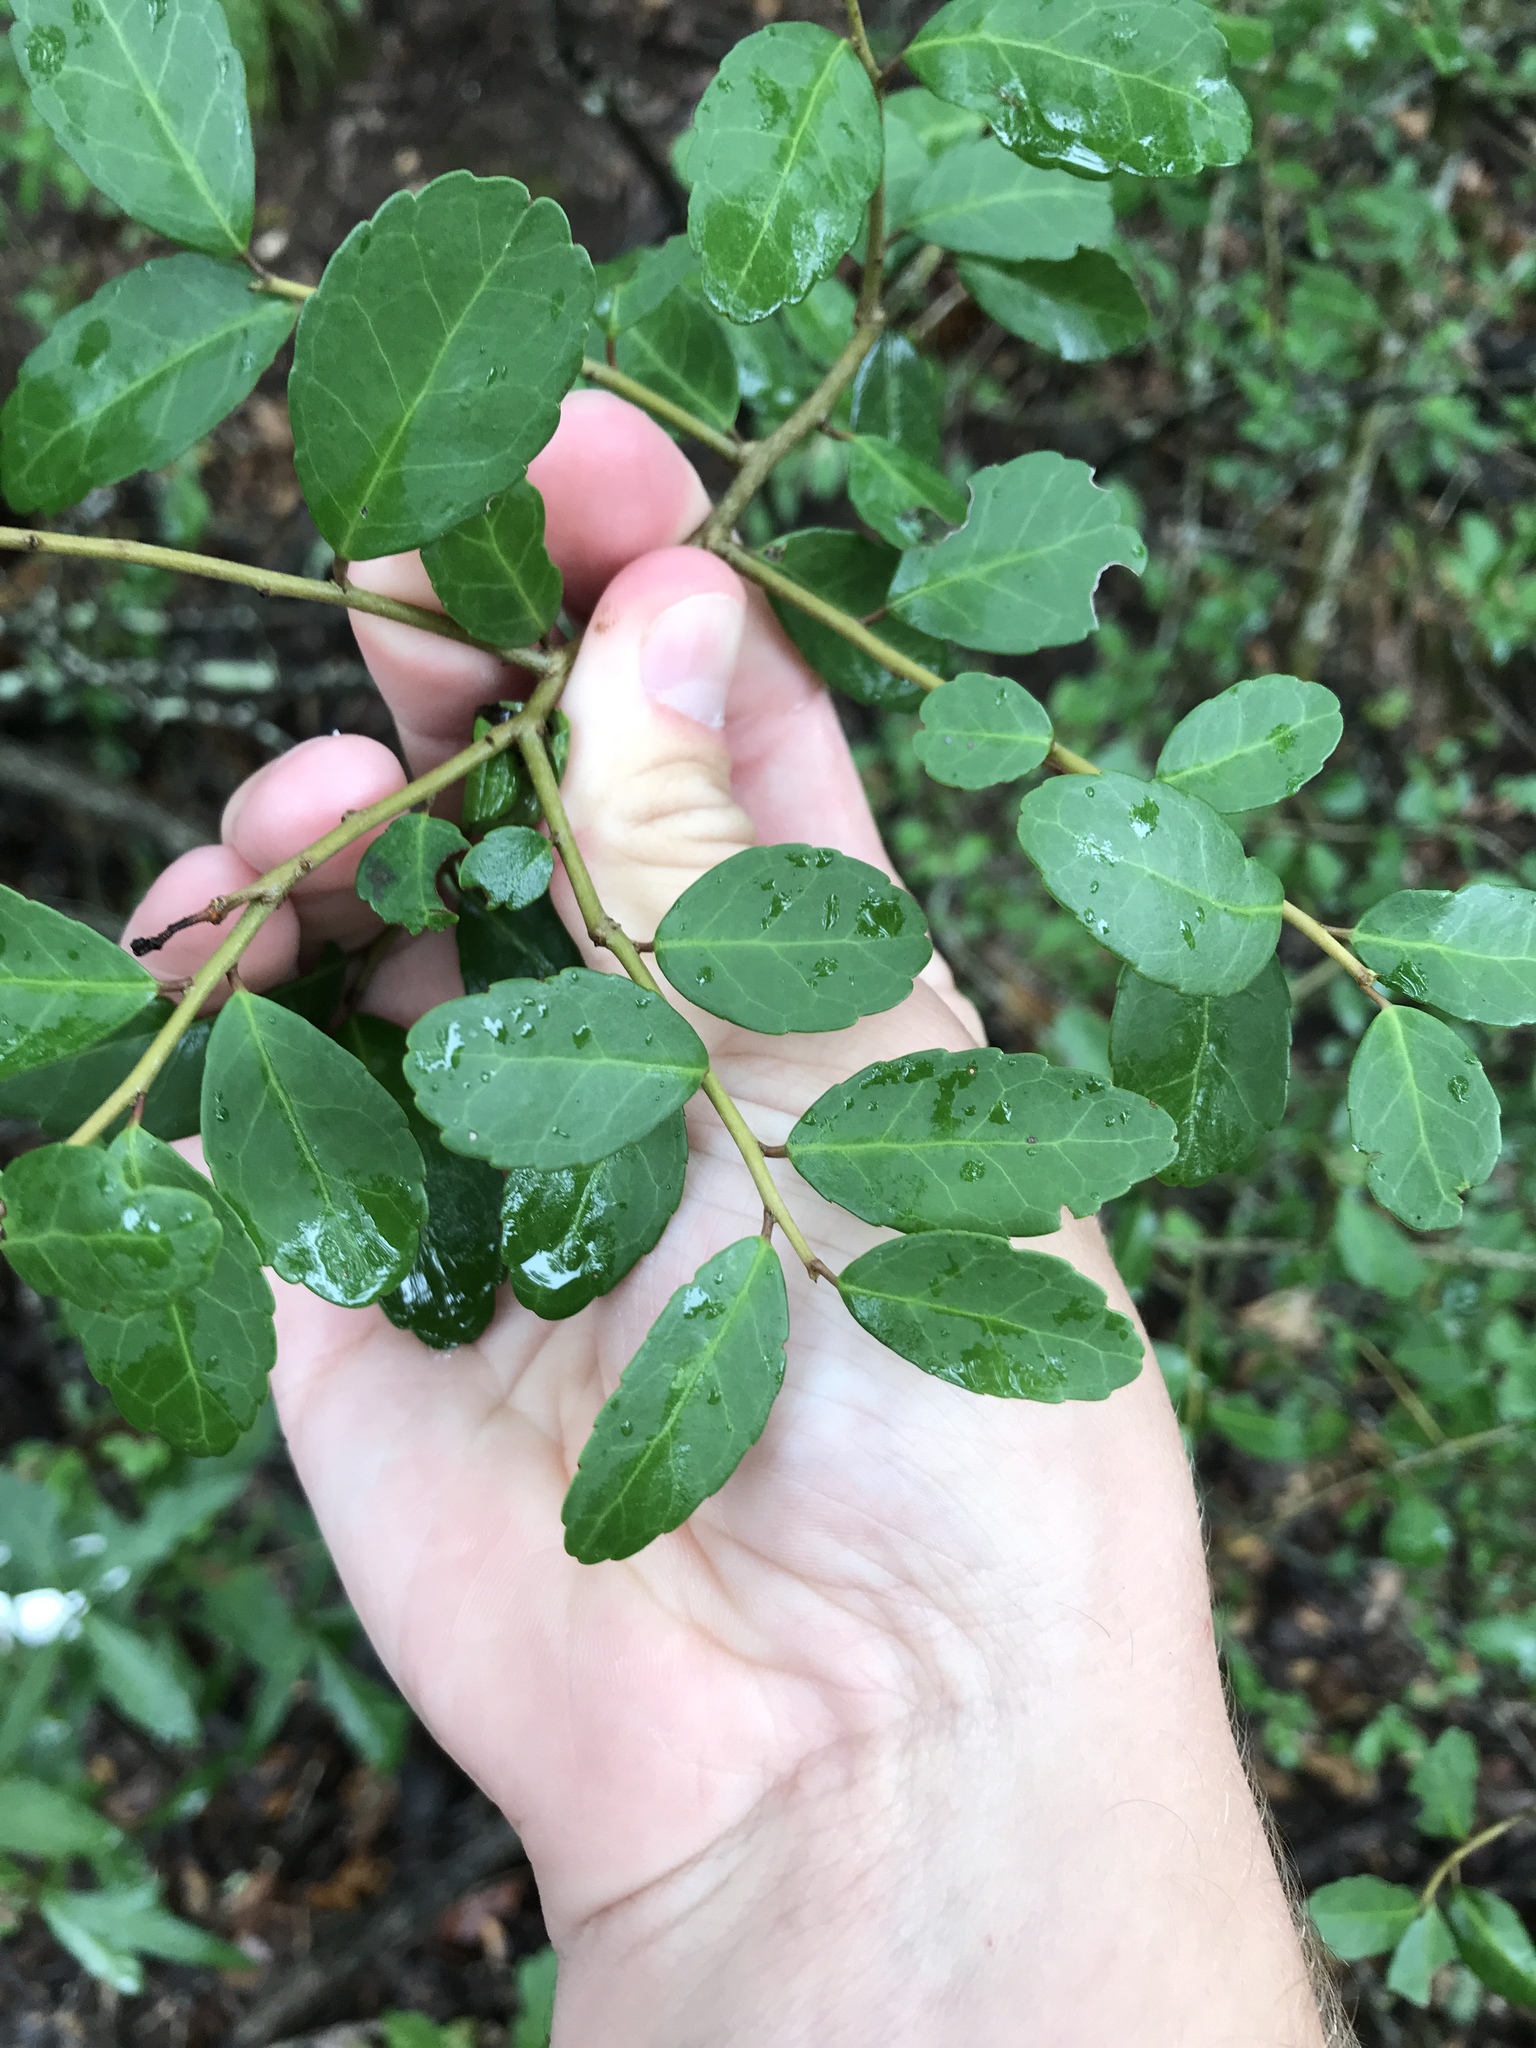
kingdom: Plantae
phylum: Tracheophyta
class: Magnoliopsida
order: Aquifoliales
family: Aquifoliaceae
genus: Ilex
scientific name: Ilex vomitoria
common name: Yaupon holly
